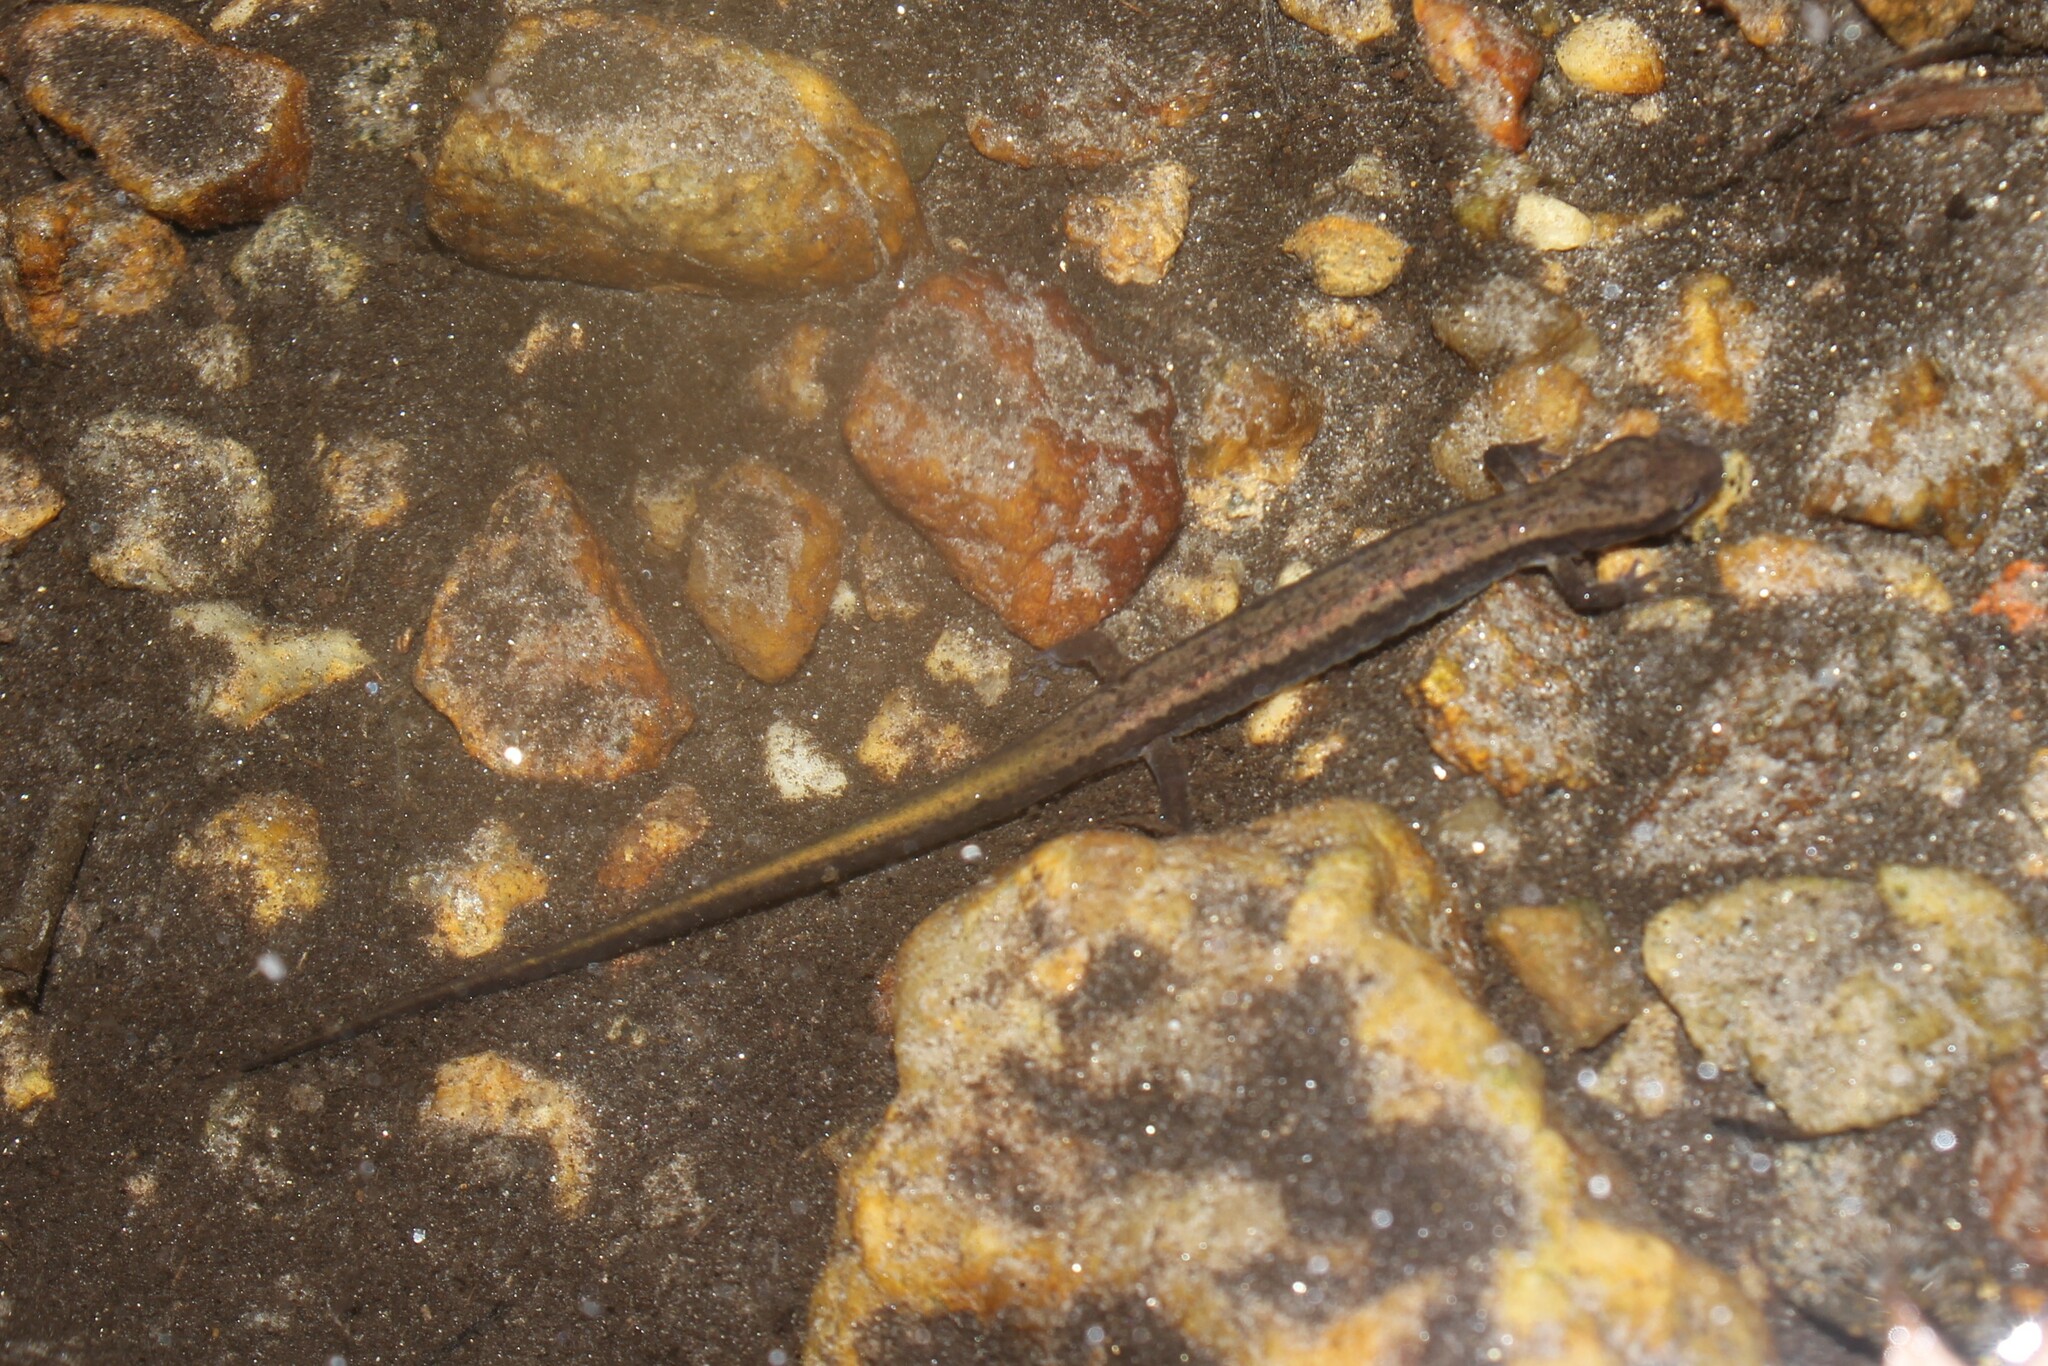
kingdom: Animalia
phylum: Chordata
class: Amphibia
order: Caudata
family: Plethodontidae
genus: Eurycea
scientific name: Eurycea bislineata
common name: Northern two-lined salamander
